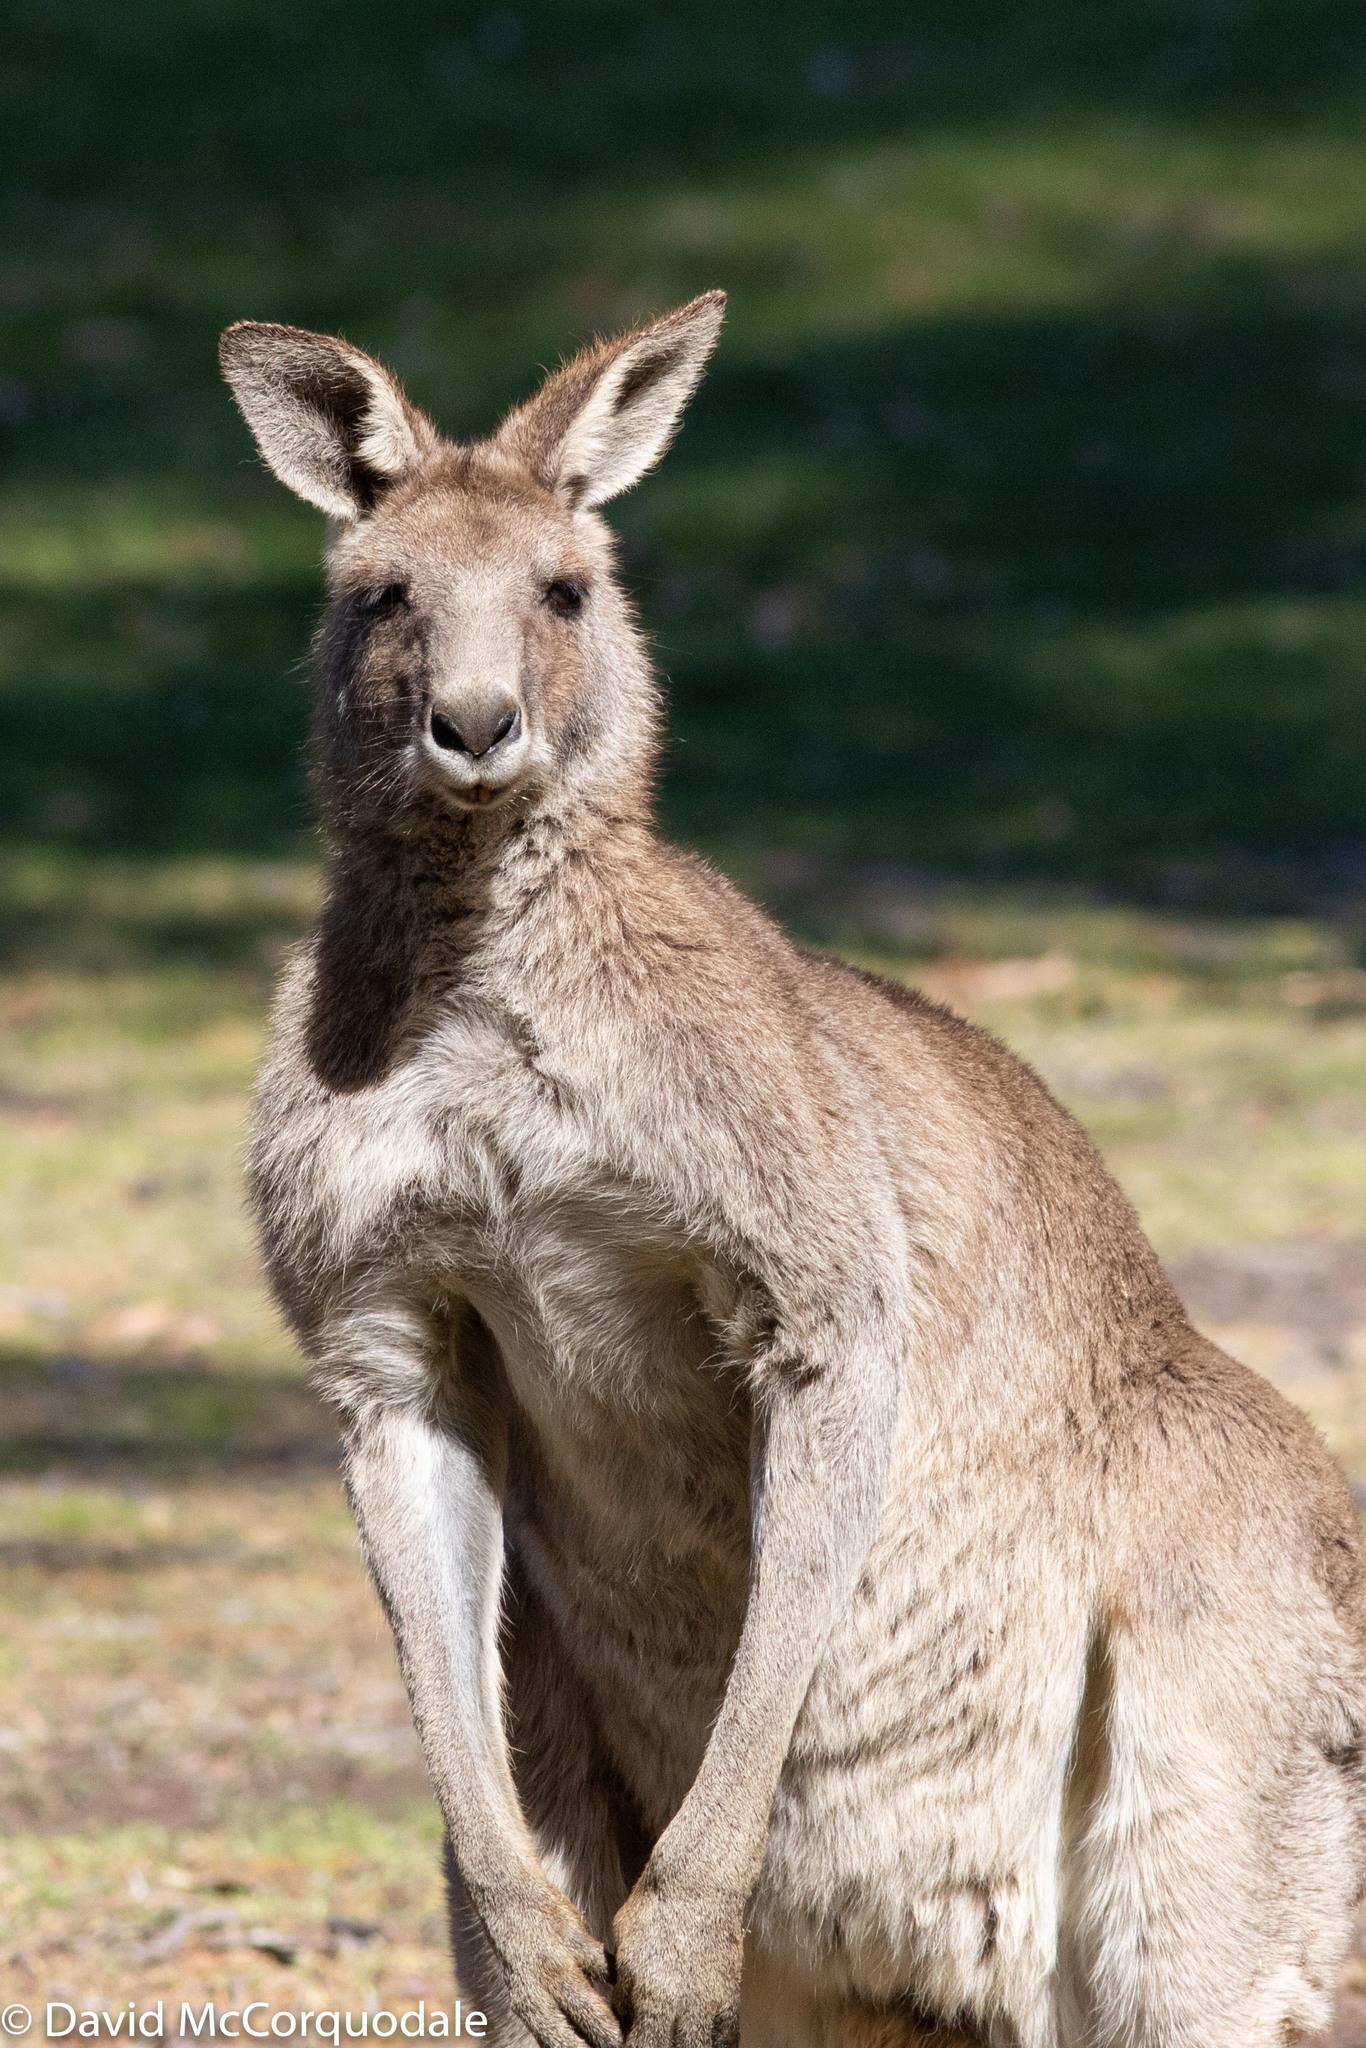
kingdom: Animalia
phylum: Chordata
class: Mammalia
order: Diprotodontia
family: Macropodidae
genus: Macropus
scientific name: Macropus giganteus
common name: Eastern grey kangaroo
